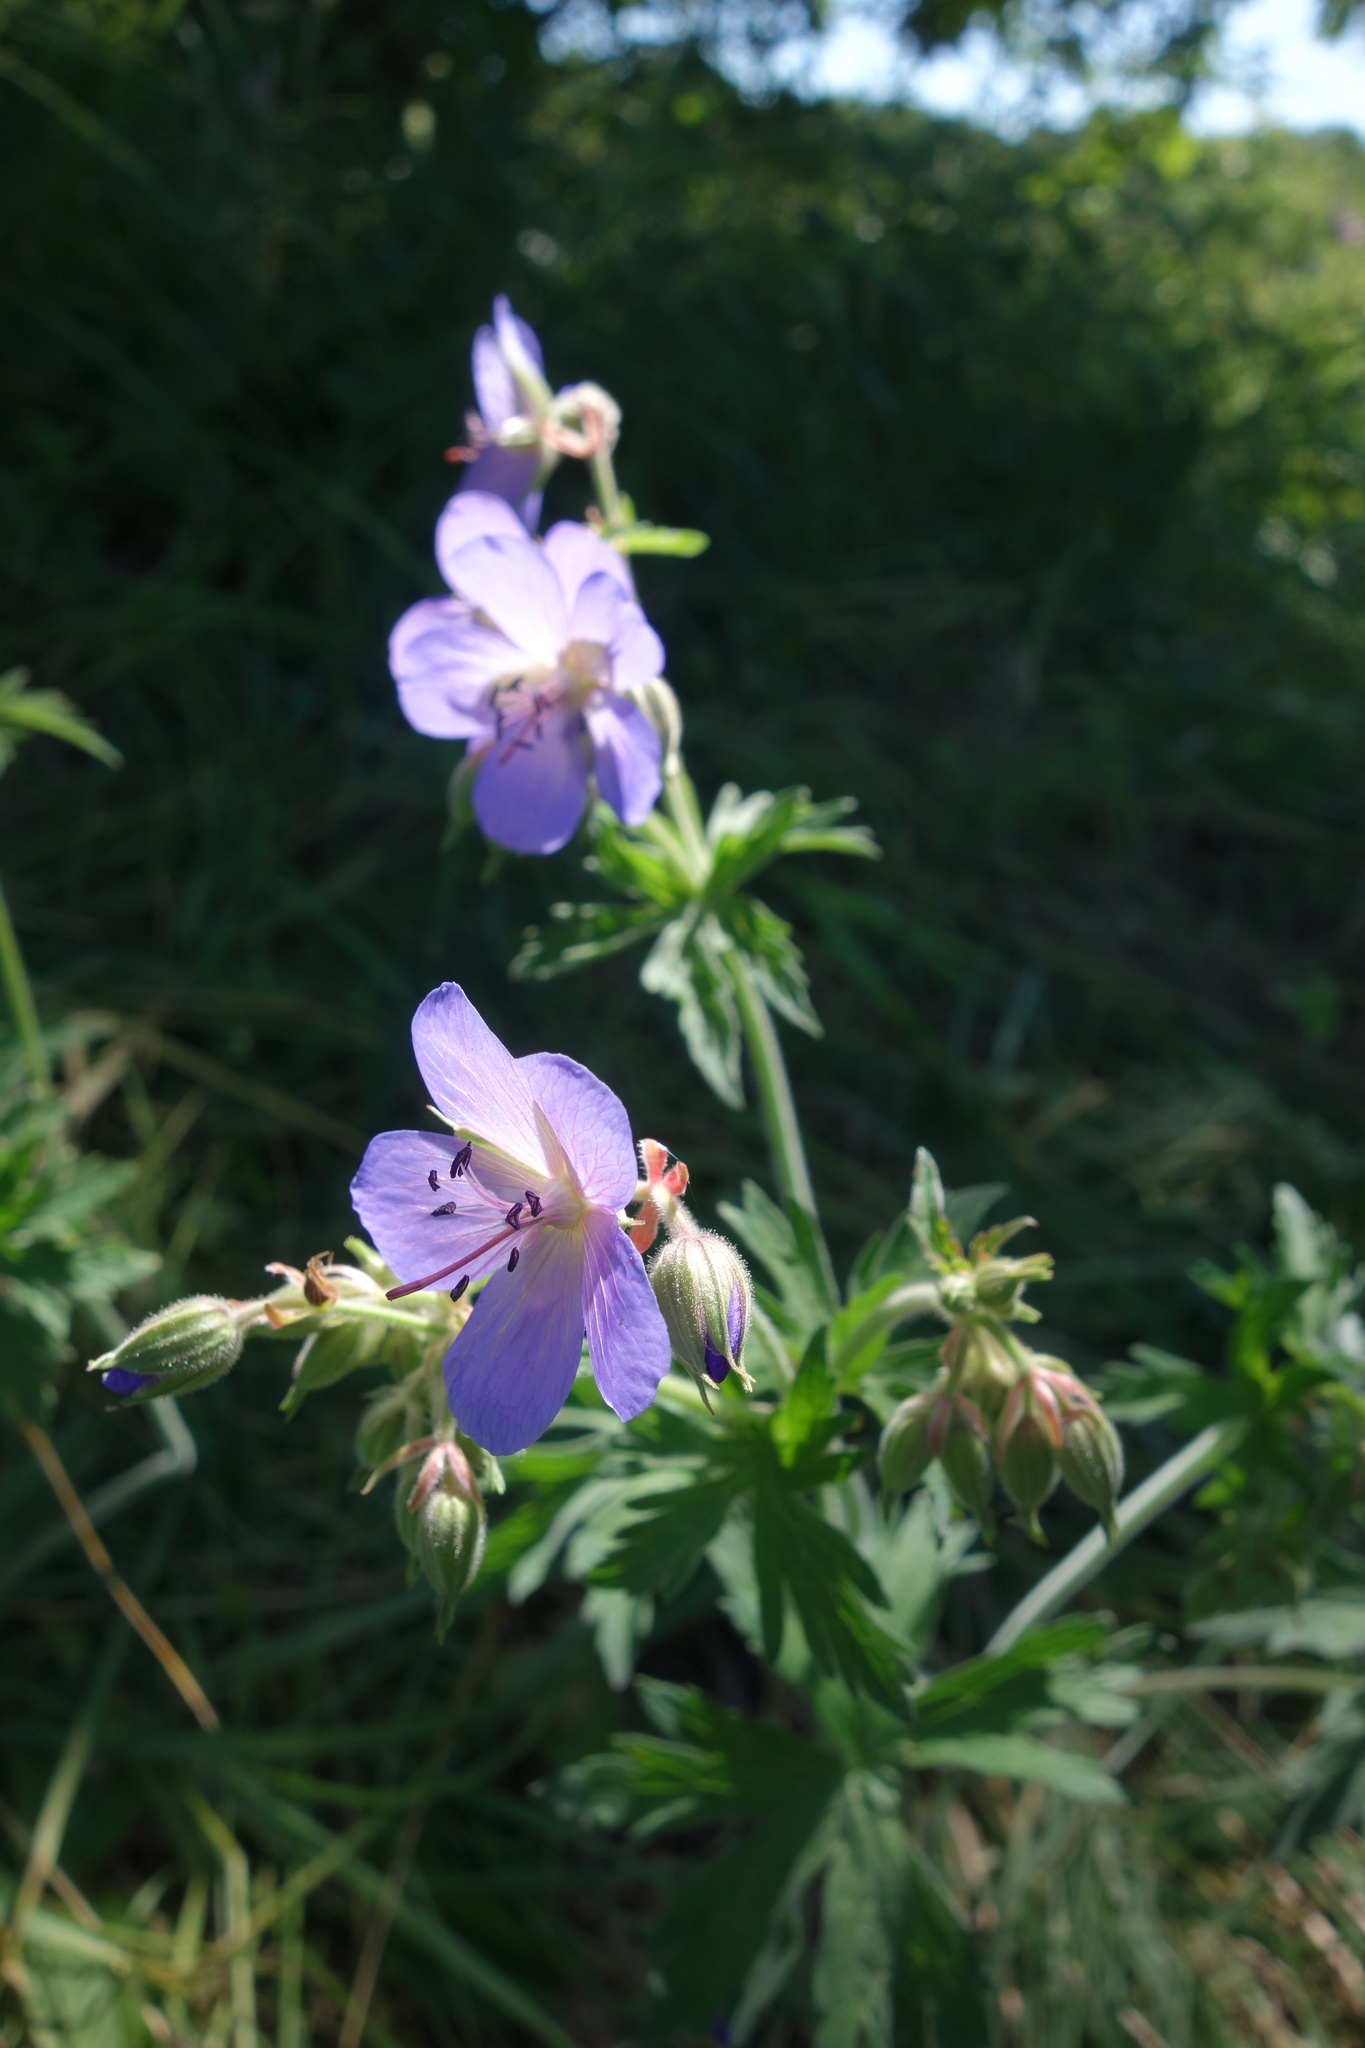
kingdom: Plantae
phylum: Tracheophyta
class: Magnoliopsida
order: Geraniales
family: Geraniaceae
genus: Geranium
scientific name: Geranium pratense
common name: Meadow crane's-bill
